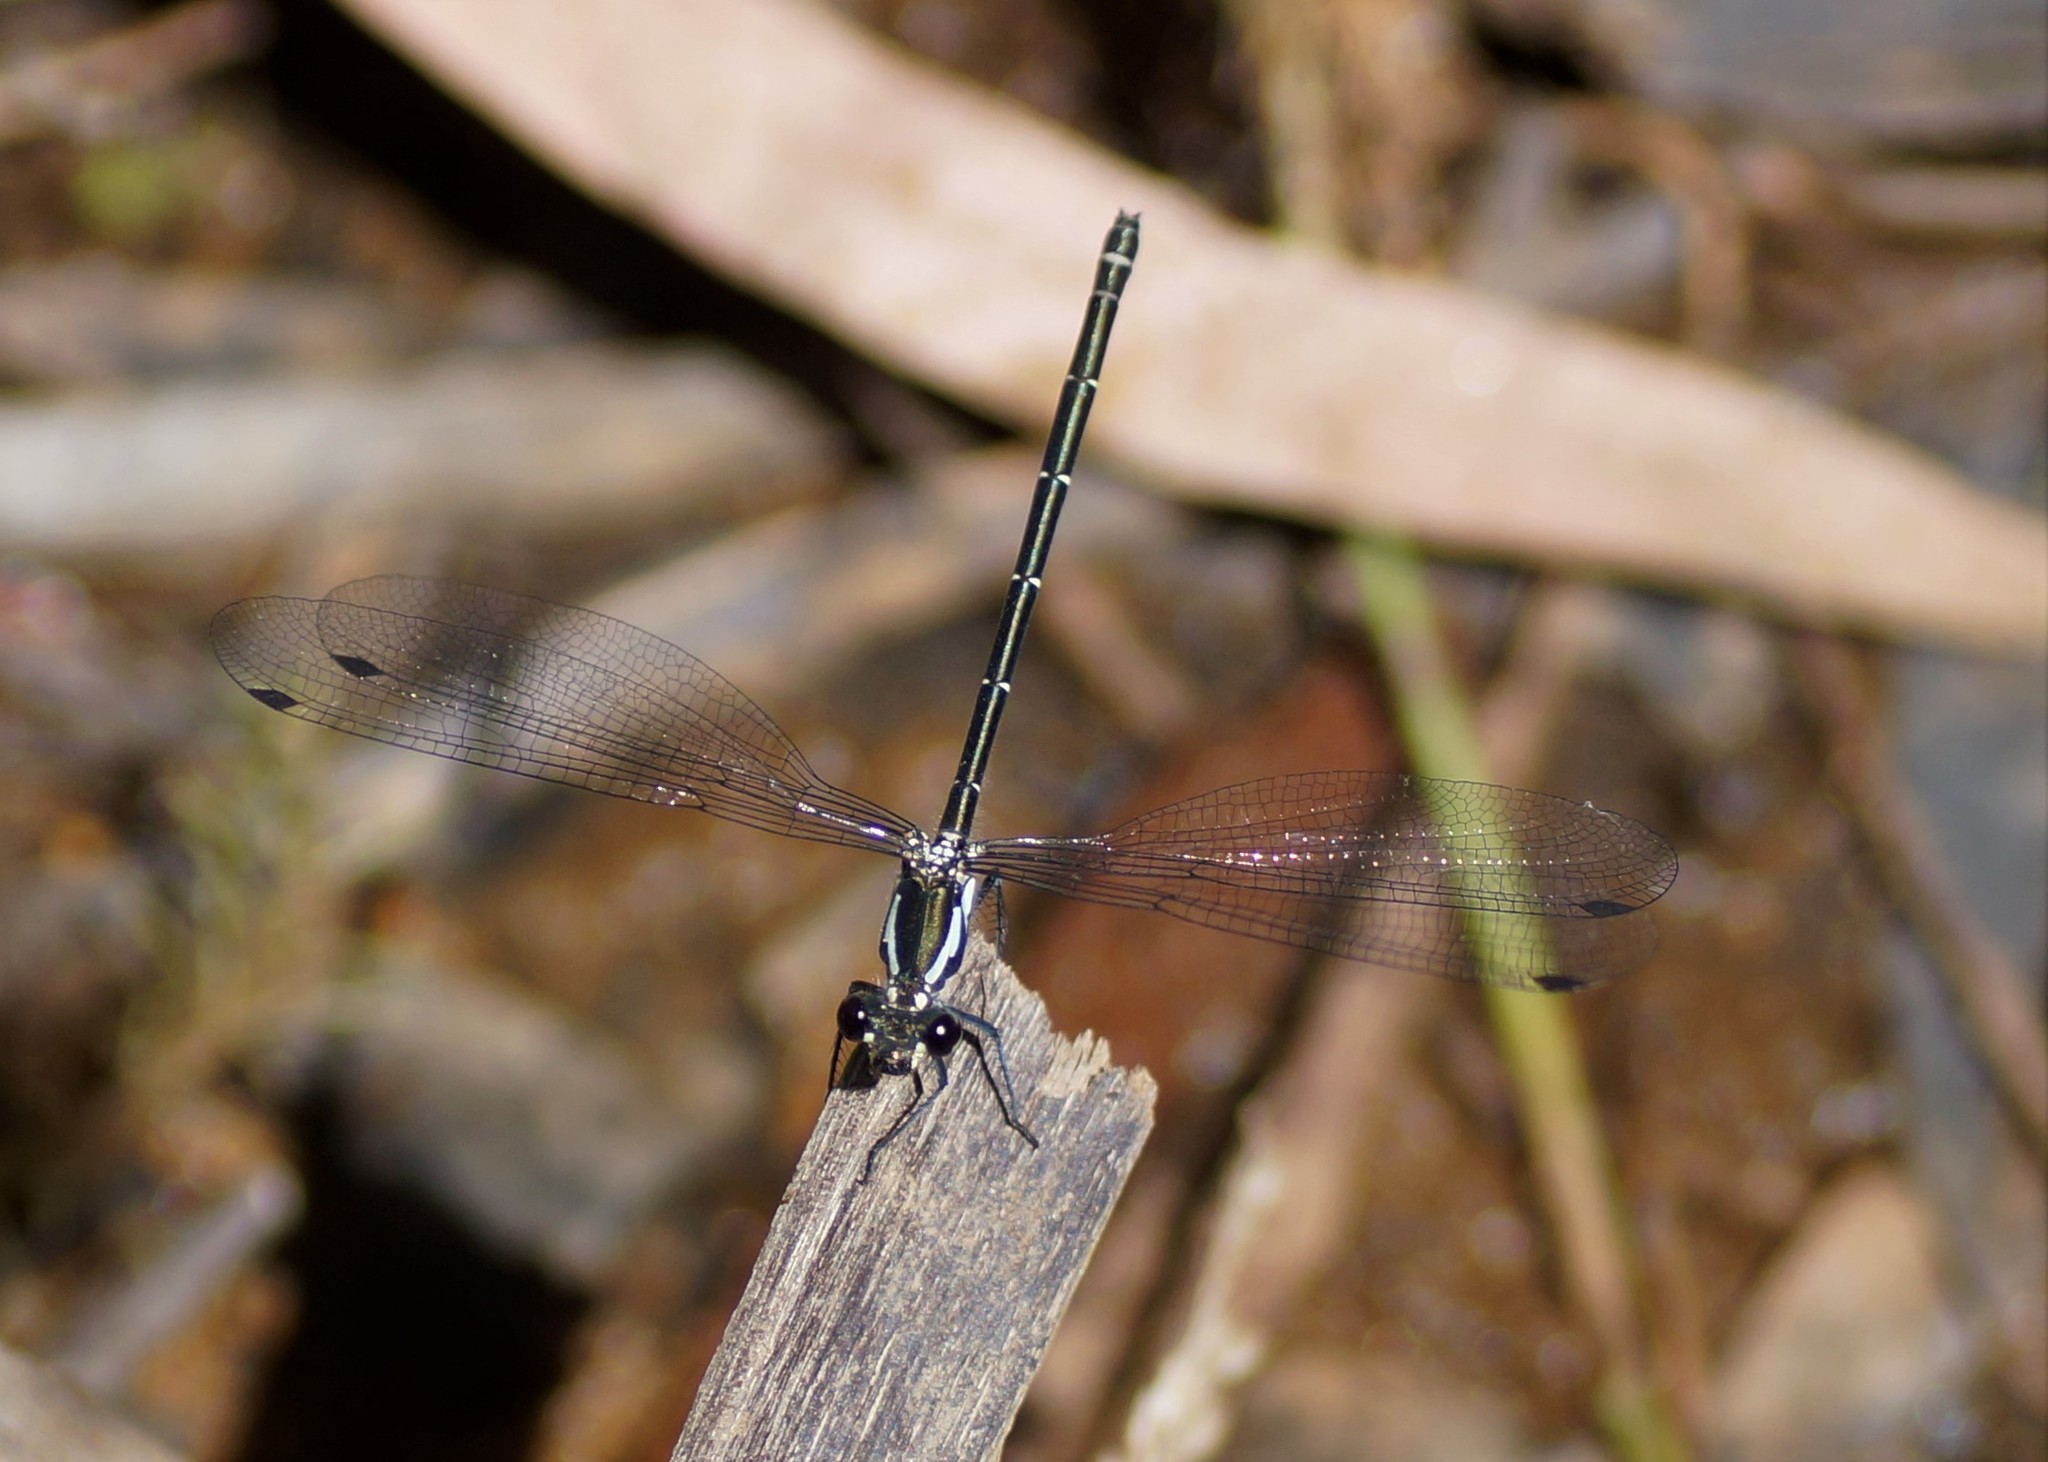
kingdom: Animalia
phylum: Arthropoda
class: Insecta
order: Odonata
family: Argiolestidae
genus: Austroargiolestes
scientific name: Austroargiolestes icteromelas
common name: Common flatwing
